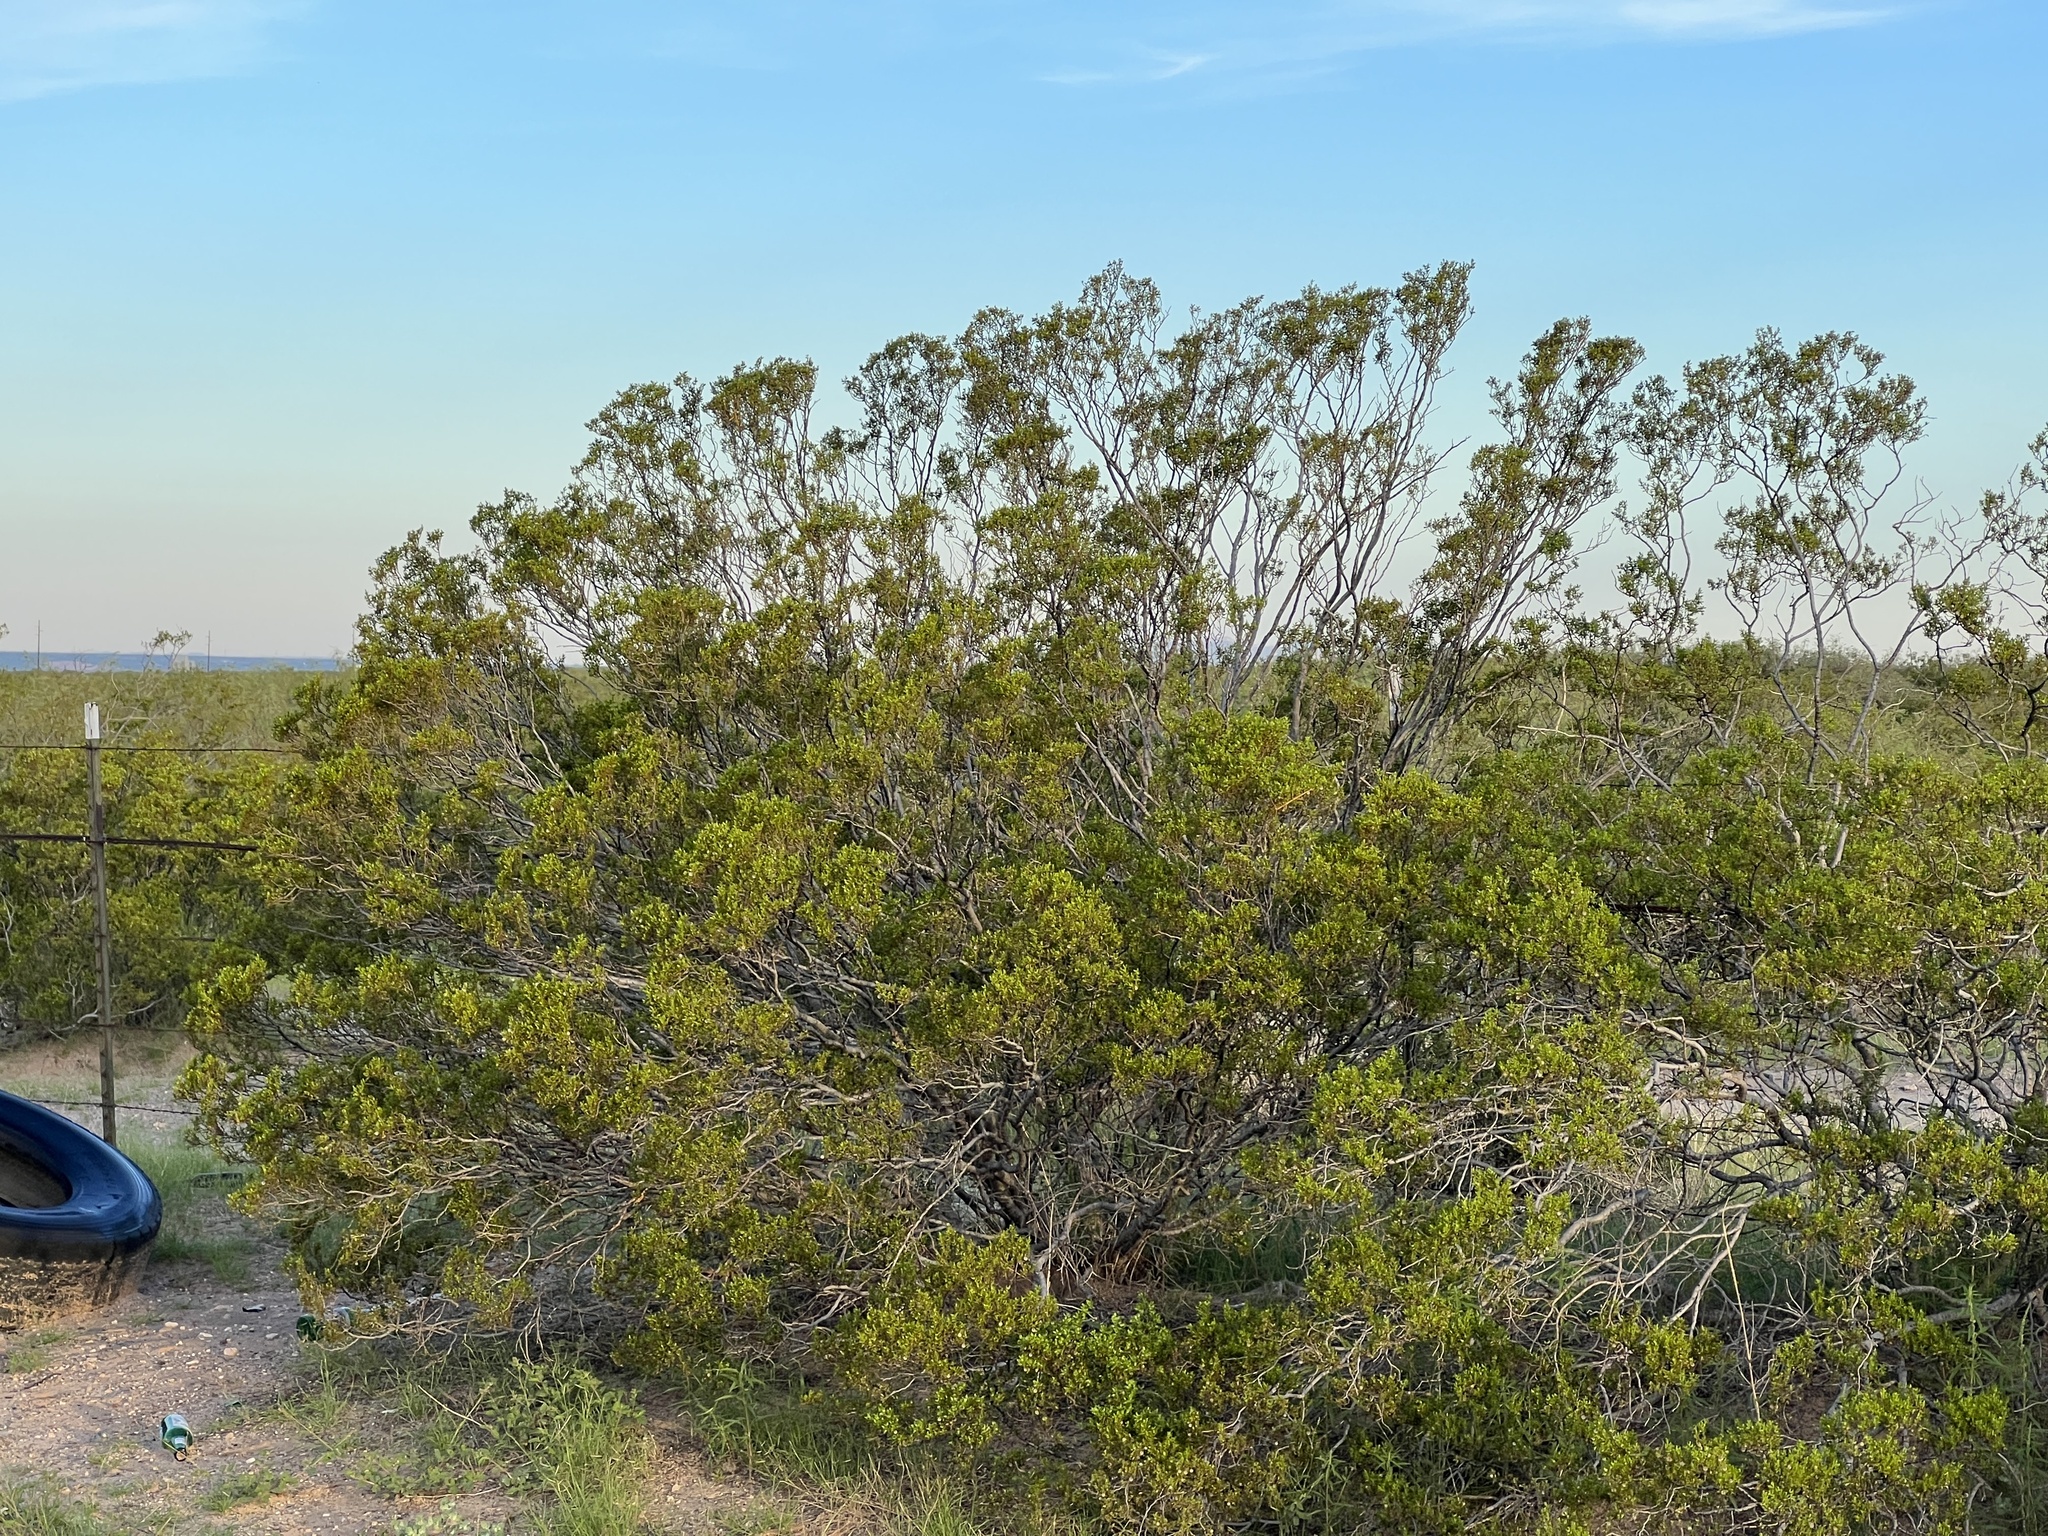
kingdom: Plantae
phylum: Tracheophyta
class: Magnoliopsida
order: Zygophyllales
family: Zygophyllaceae
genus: Larrea
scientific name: Larrea tridentata
